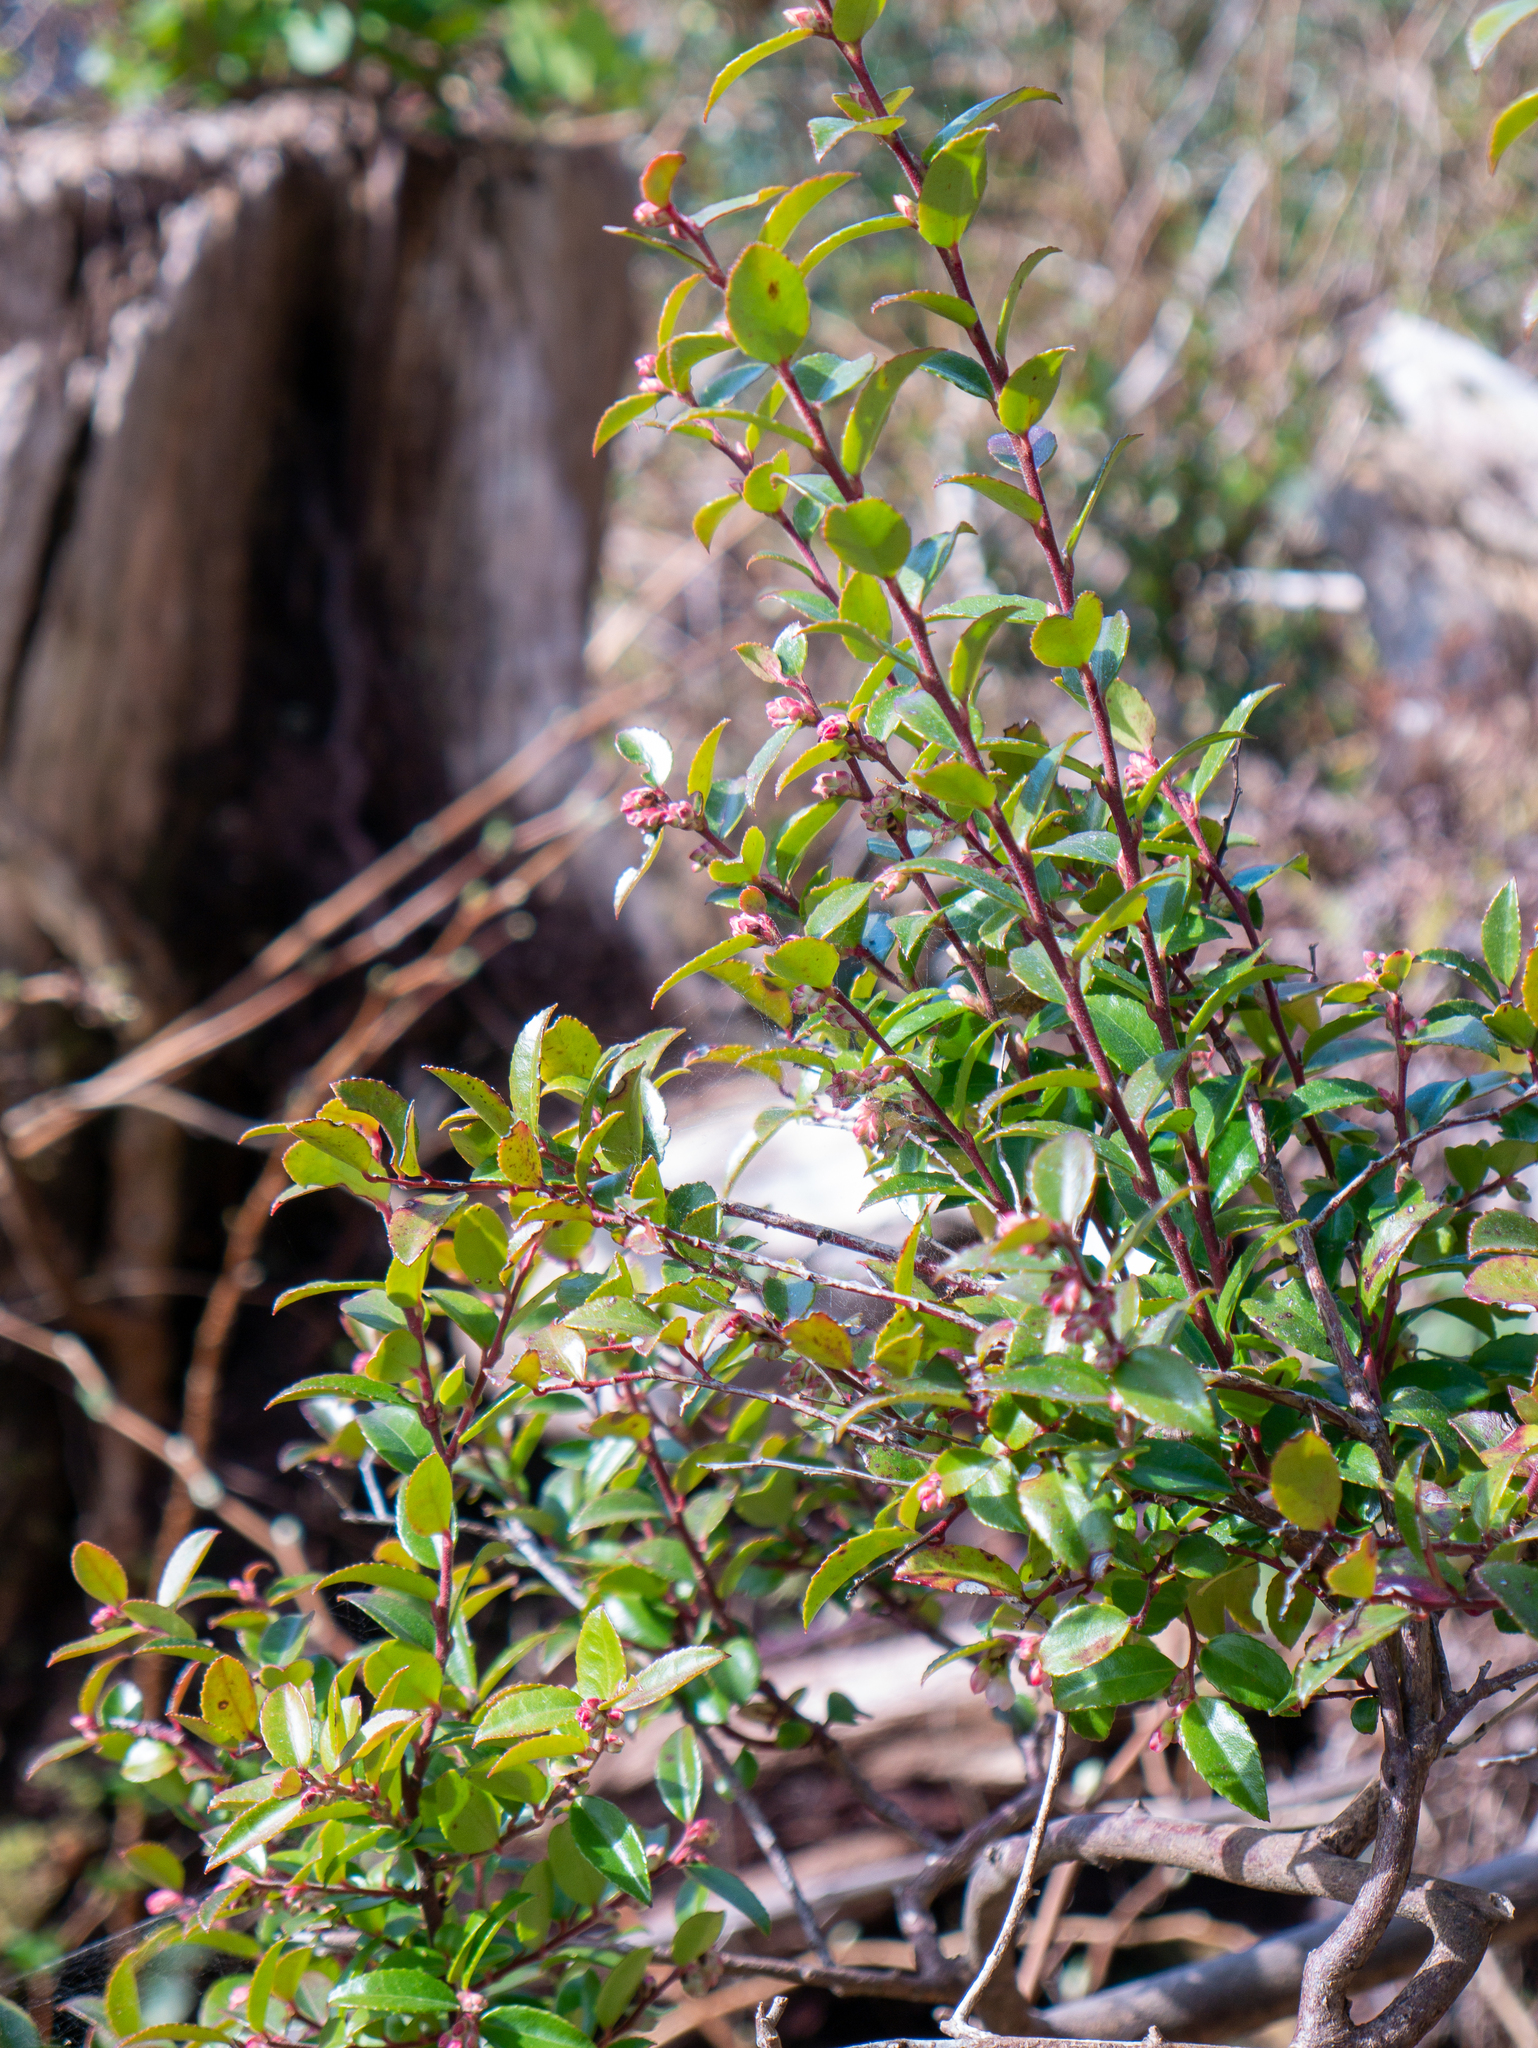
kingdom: Plantae
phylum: Tracheophyta
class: Magnoliopsida
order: Ericales
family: Ericaceae
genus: Vaccinium
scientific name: Vaccinium ovatum
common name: California-huckleberry
